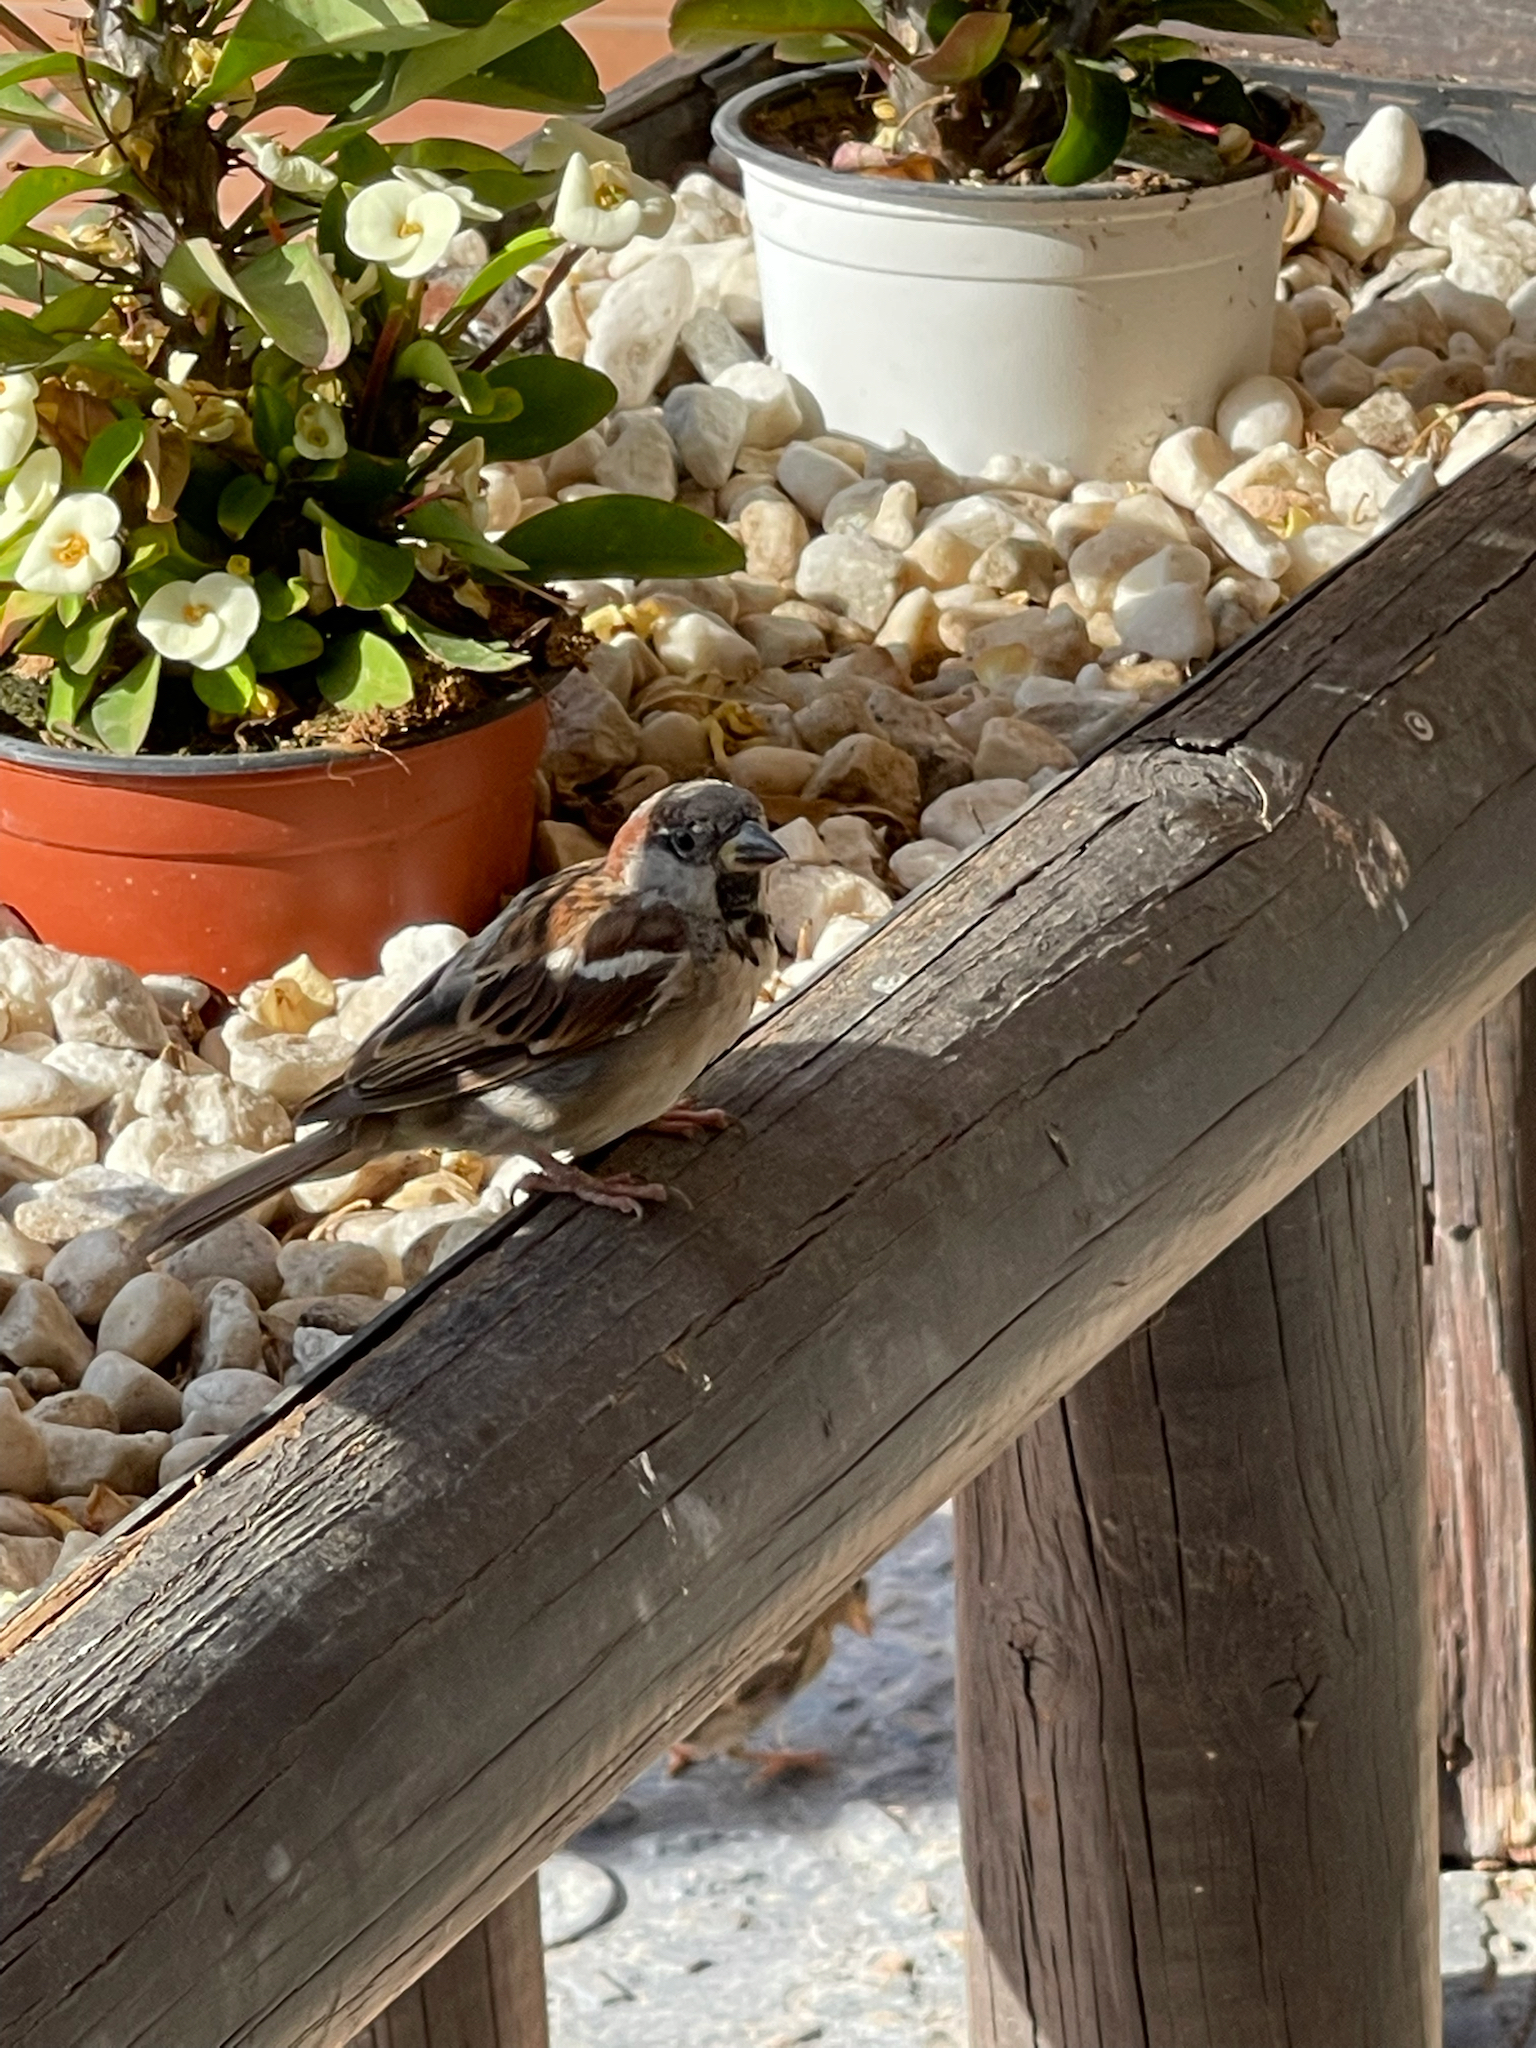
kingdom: Animalia
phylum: Chordata
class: Aves
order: Passeriformes
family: Passeridae
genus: Passer
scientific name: Passer domesticus
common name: House sparrow
